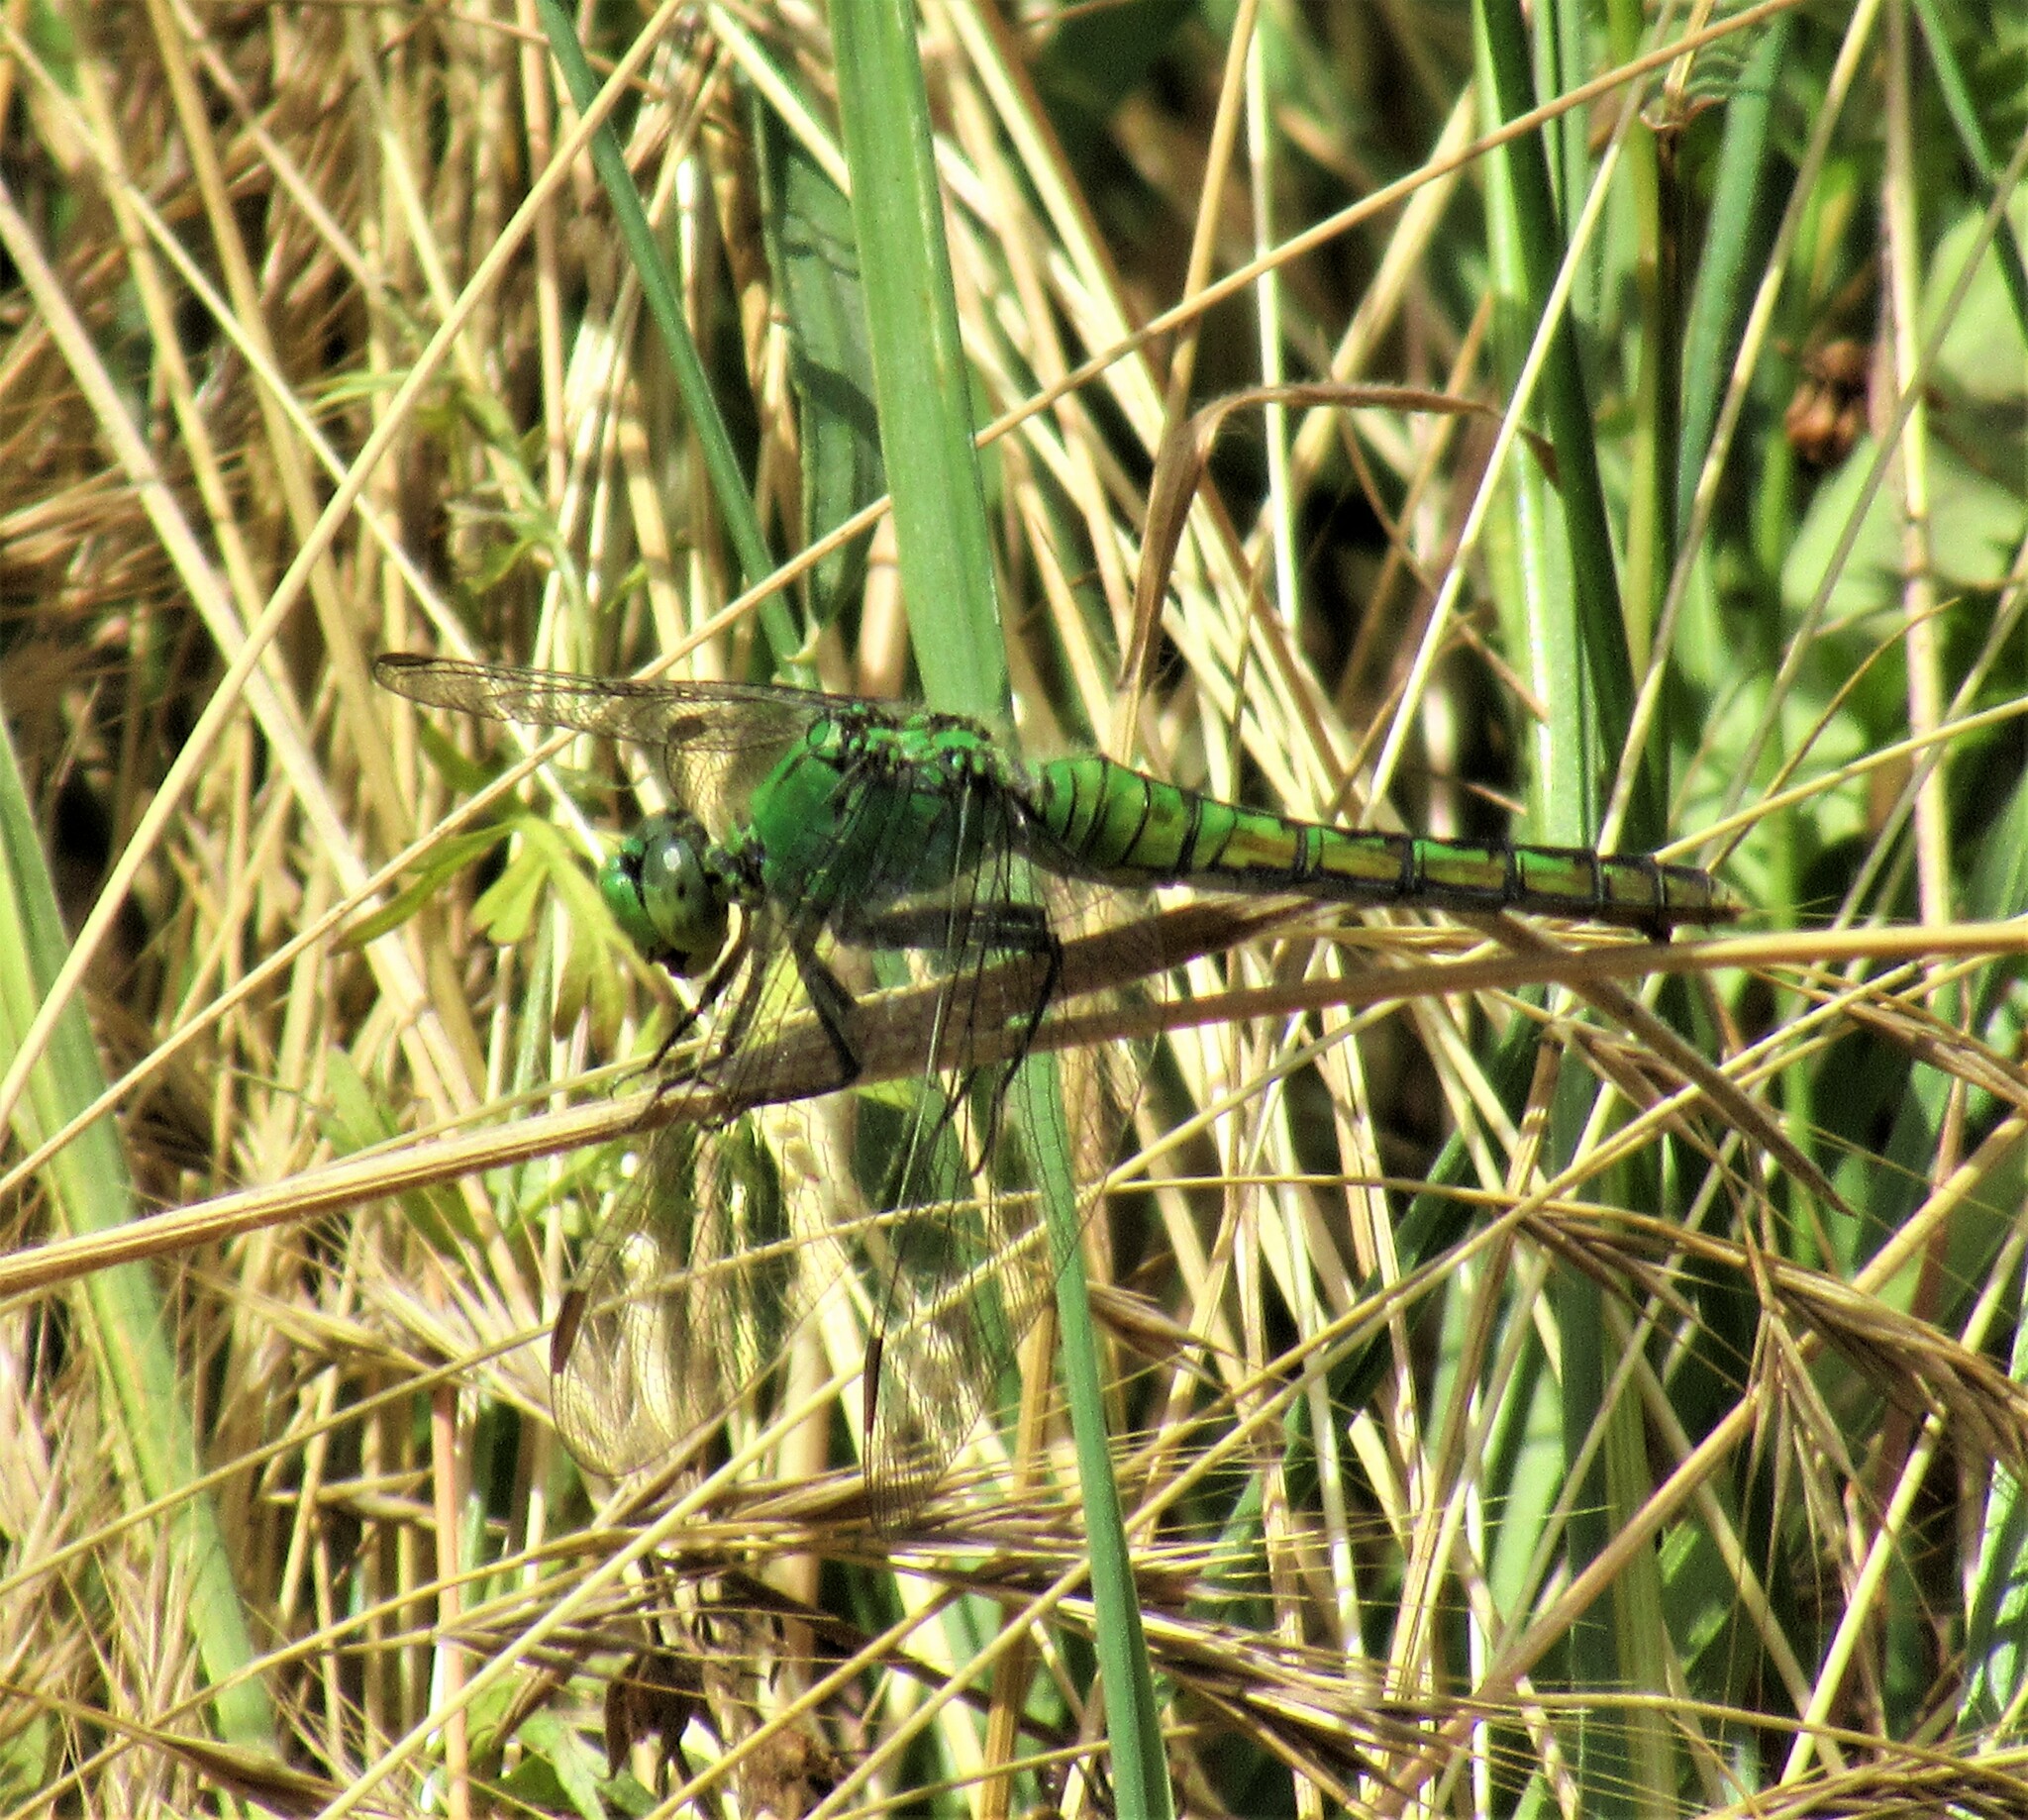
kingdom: Animalia
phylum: Arthropoda
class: Insecta
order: Odonata
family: Libellulidae
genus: Erythemis
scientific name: Erythemis collocata
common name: Western pondhawk
